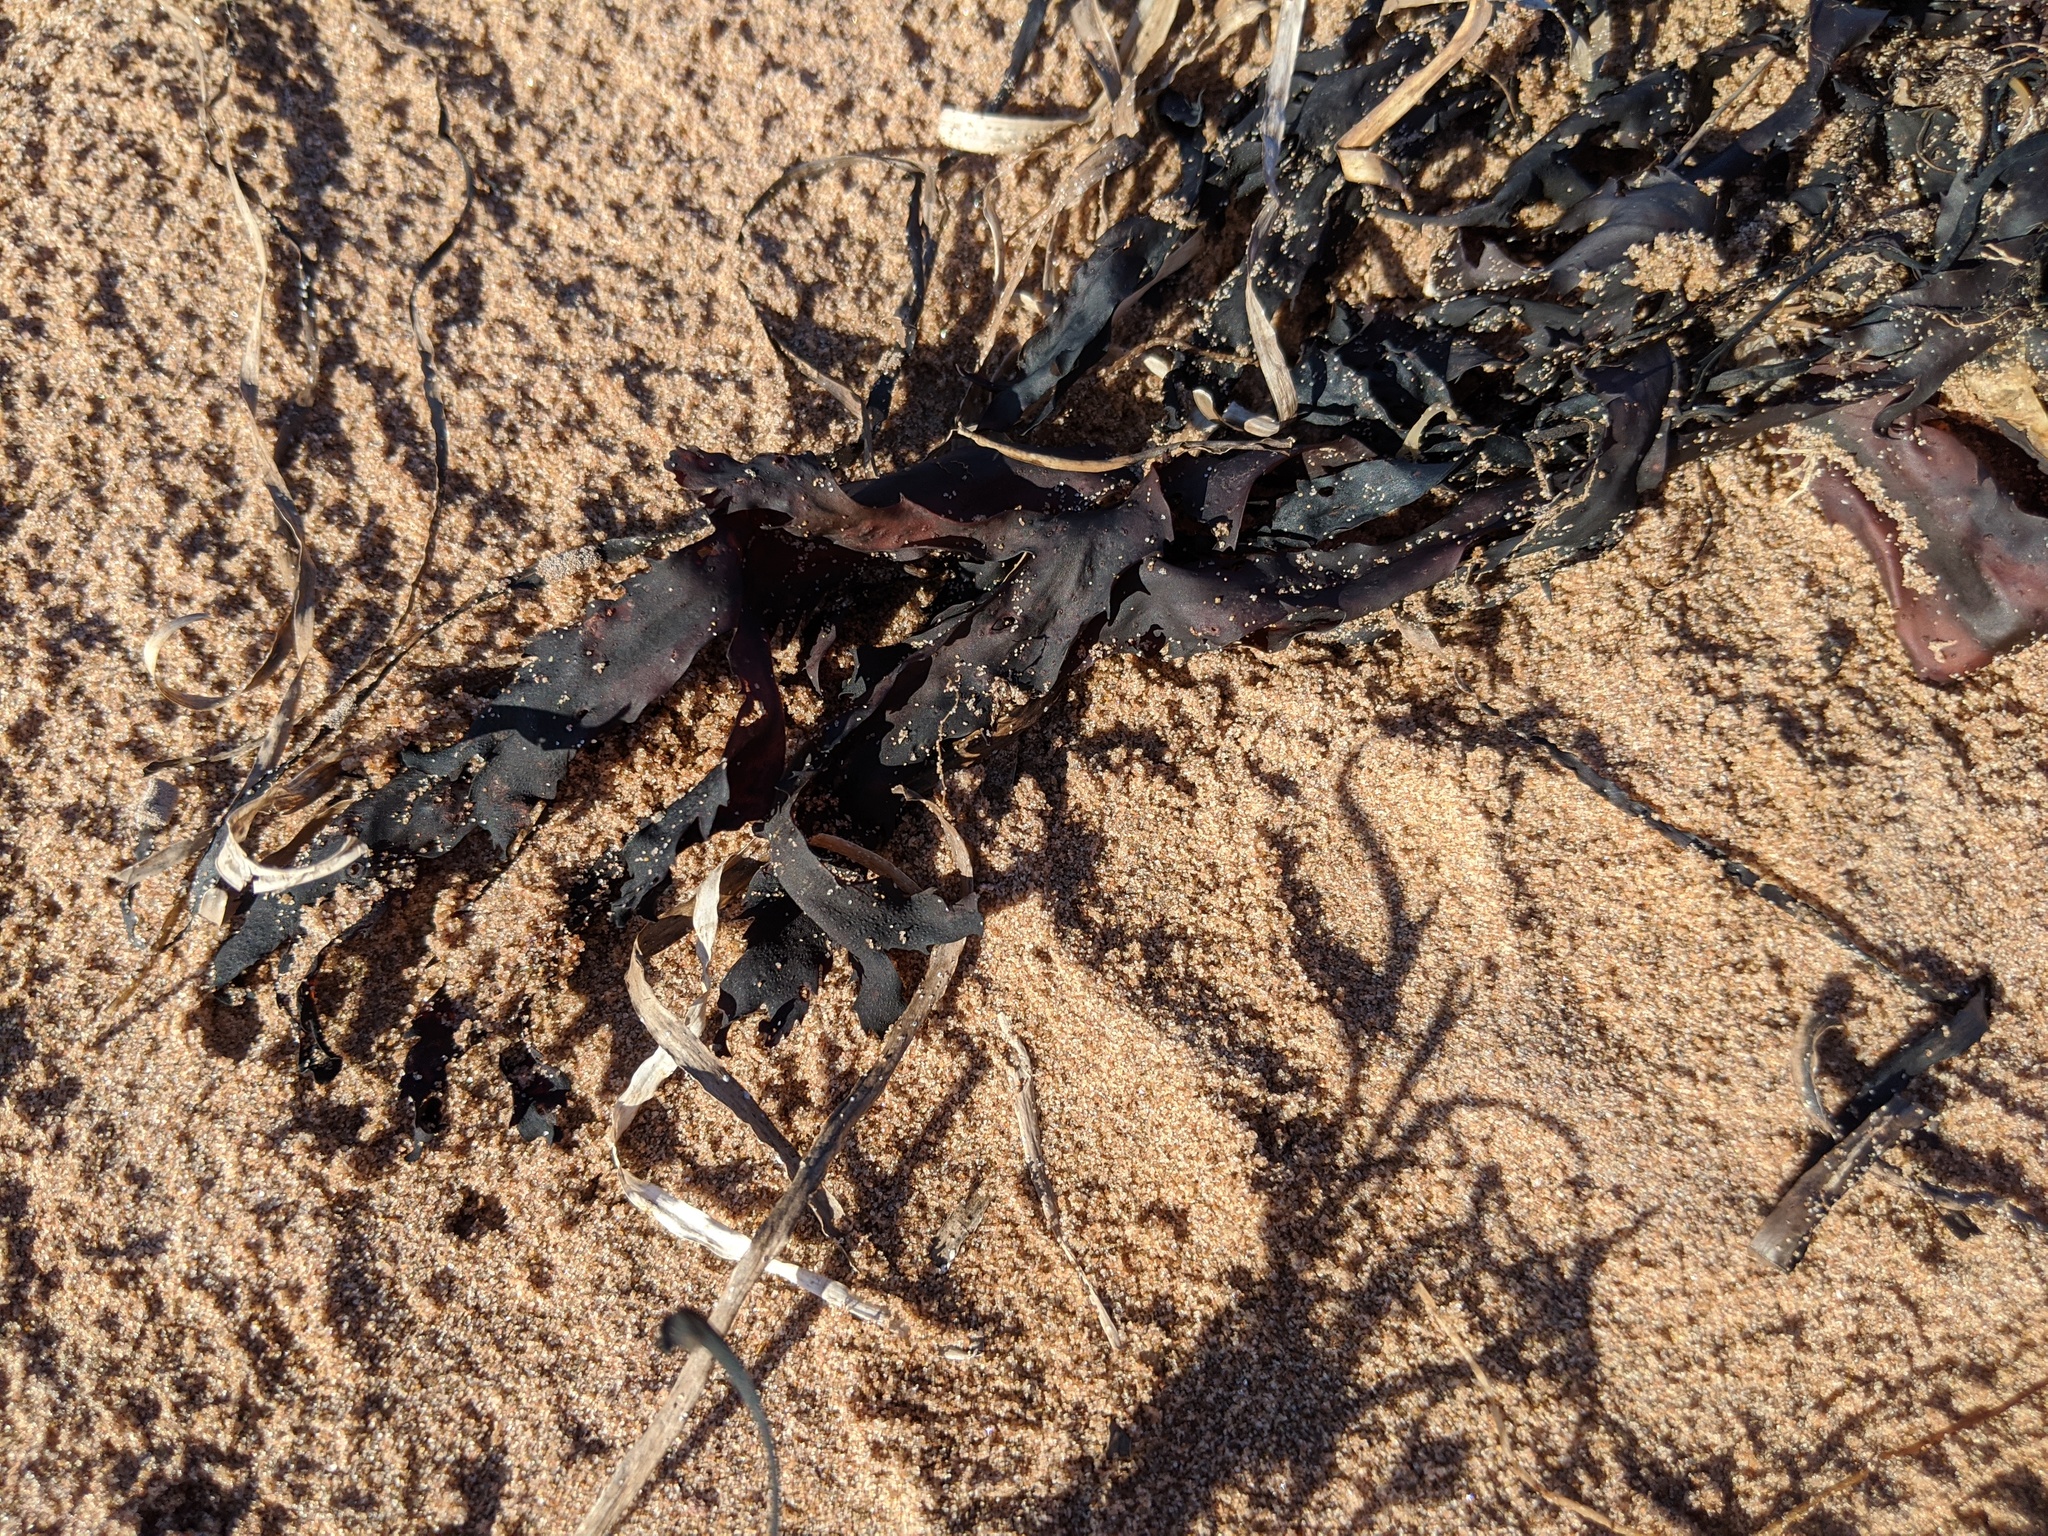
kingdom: Chromista
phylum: Ochrophyta
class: Phaeophyceae
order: Fucales
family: Fucaceae
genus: Fucus
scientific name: Fucus serratus
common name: Toothed wrack
